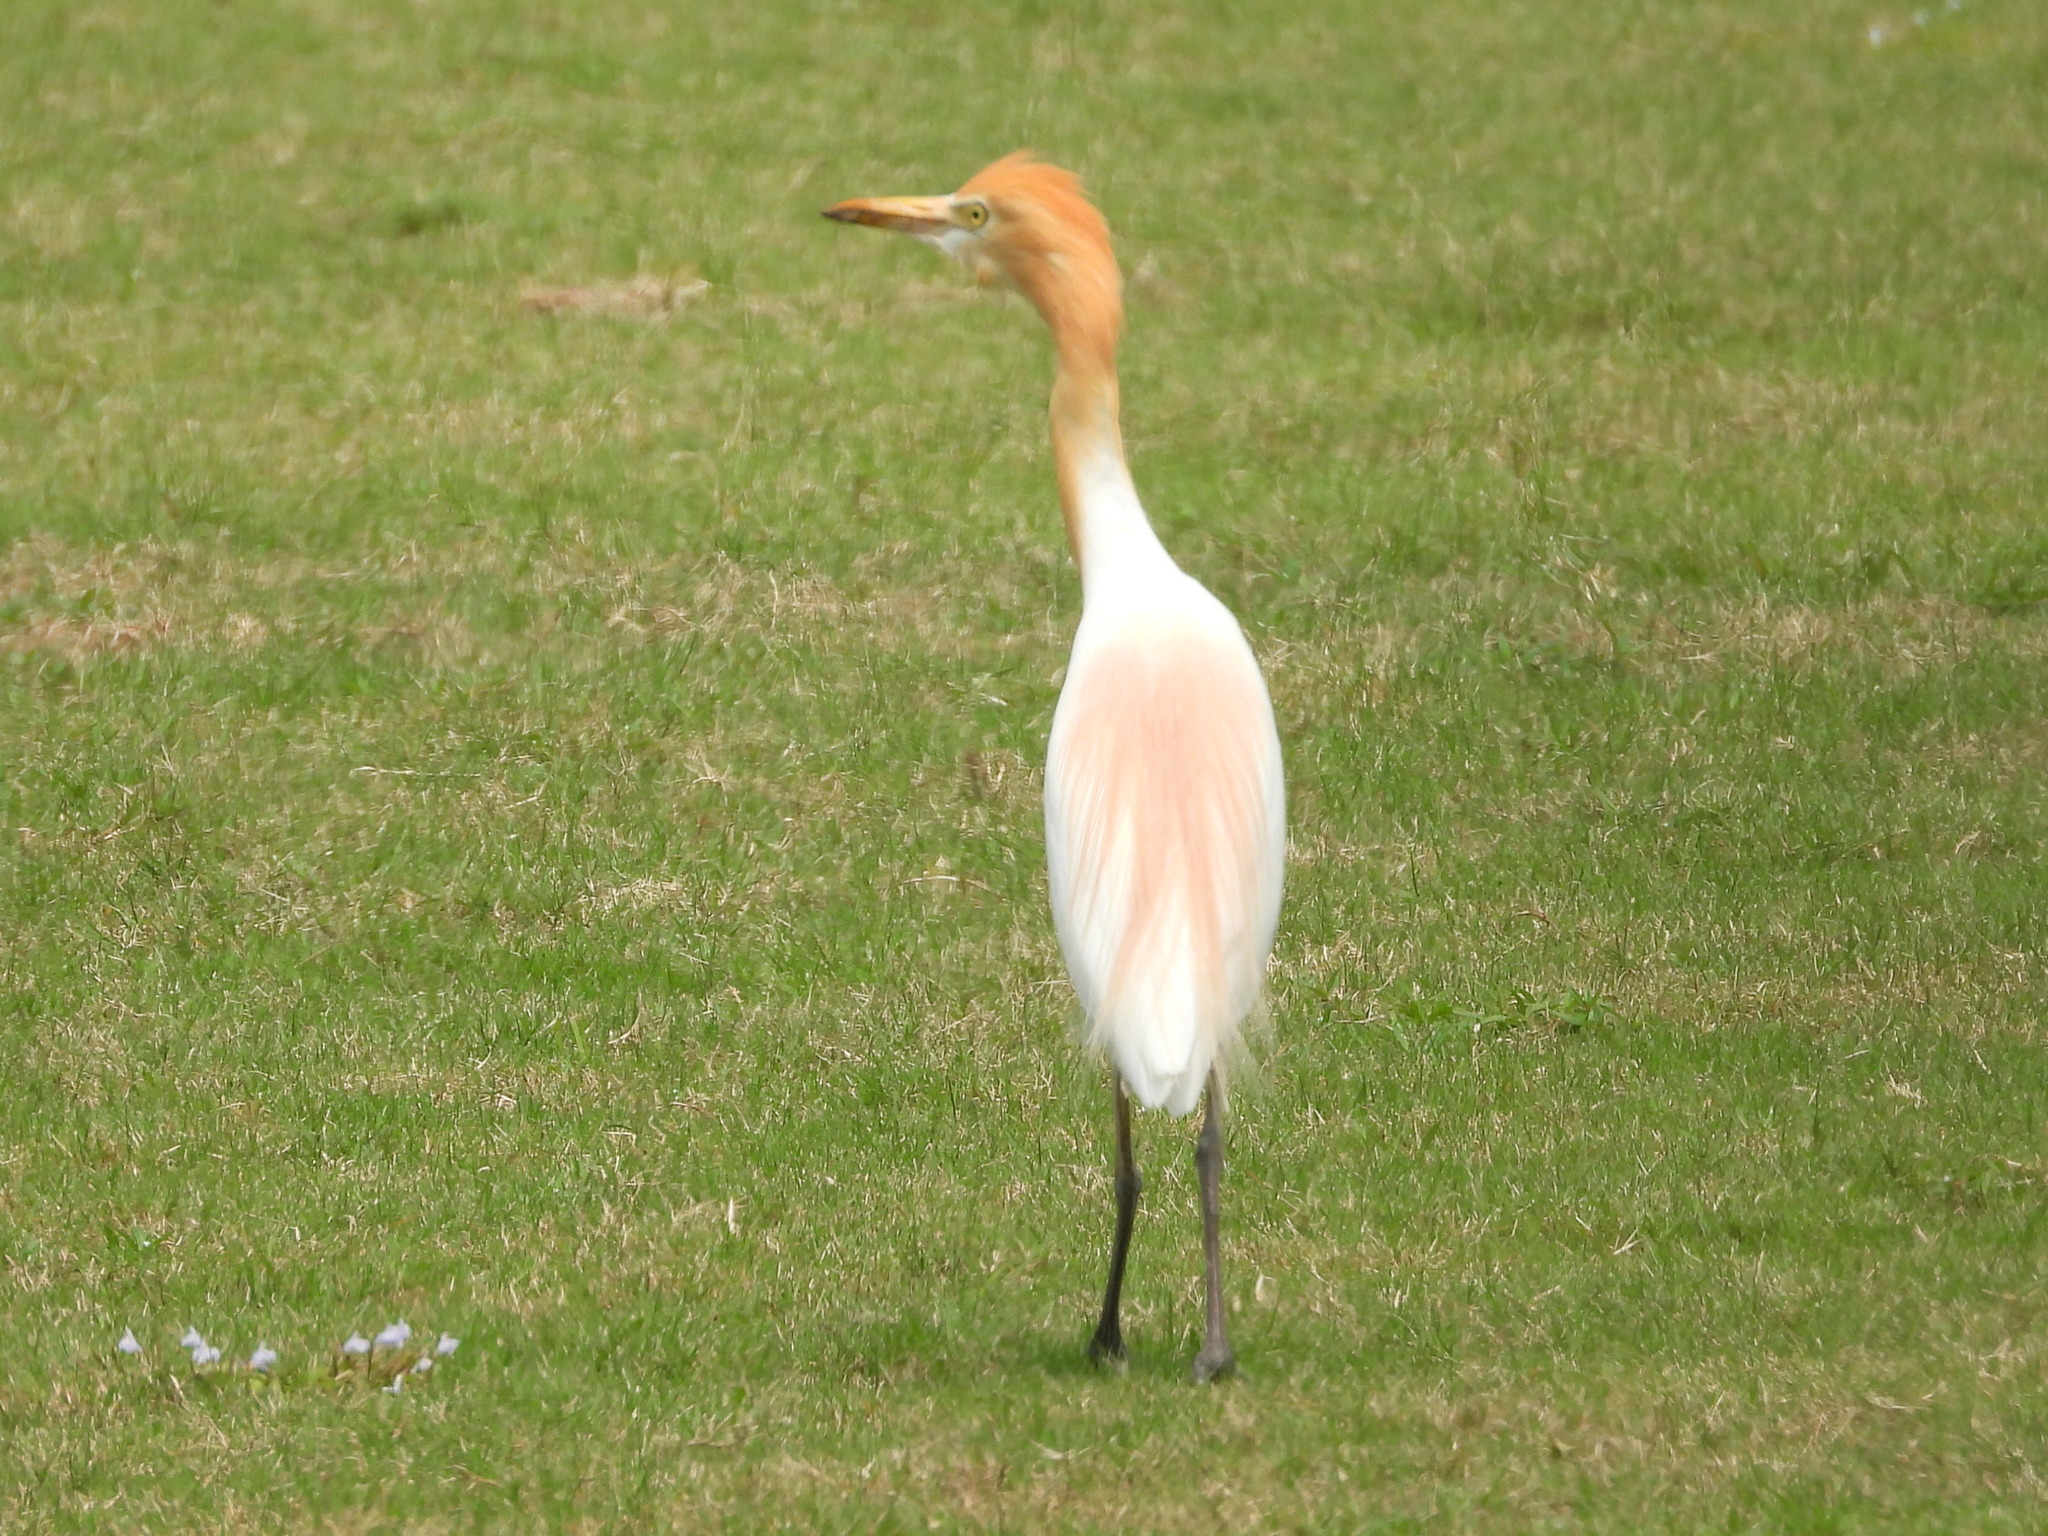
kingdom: Animalia
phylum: Chordata
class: Aves
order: Pelecaniformes
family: Ardeidae
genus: Bubulcus
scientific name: Bubulcus coromandus
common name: Eastern cattle egret
